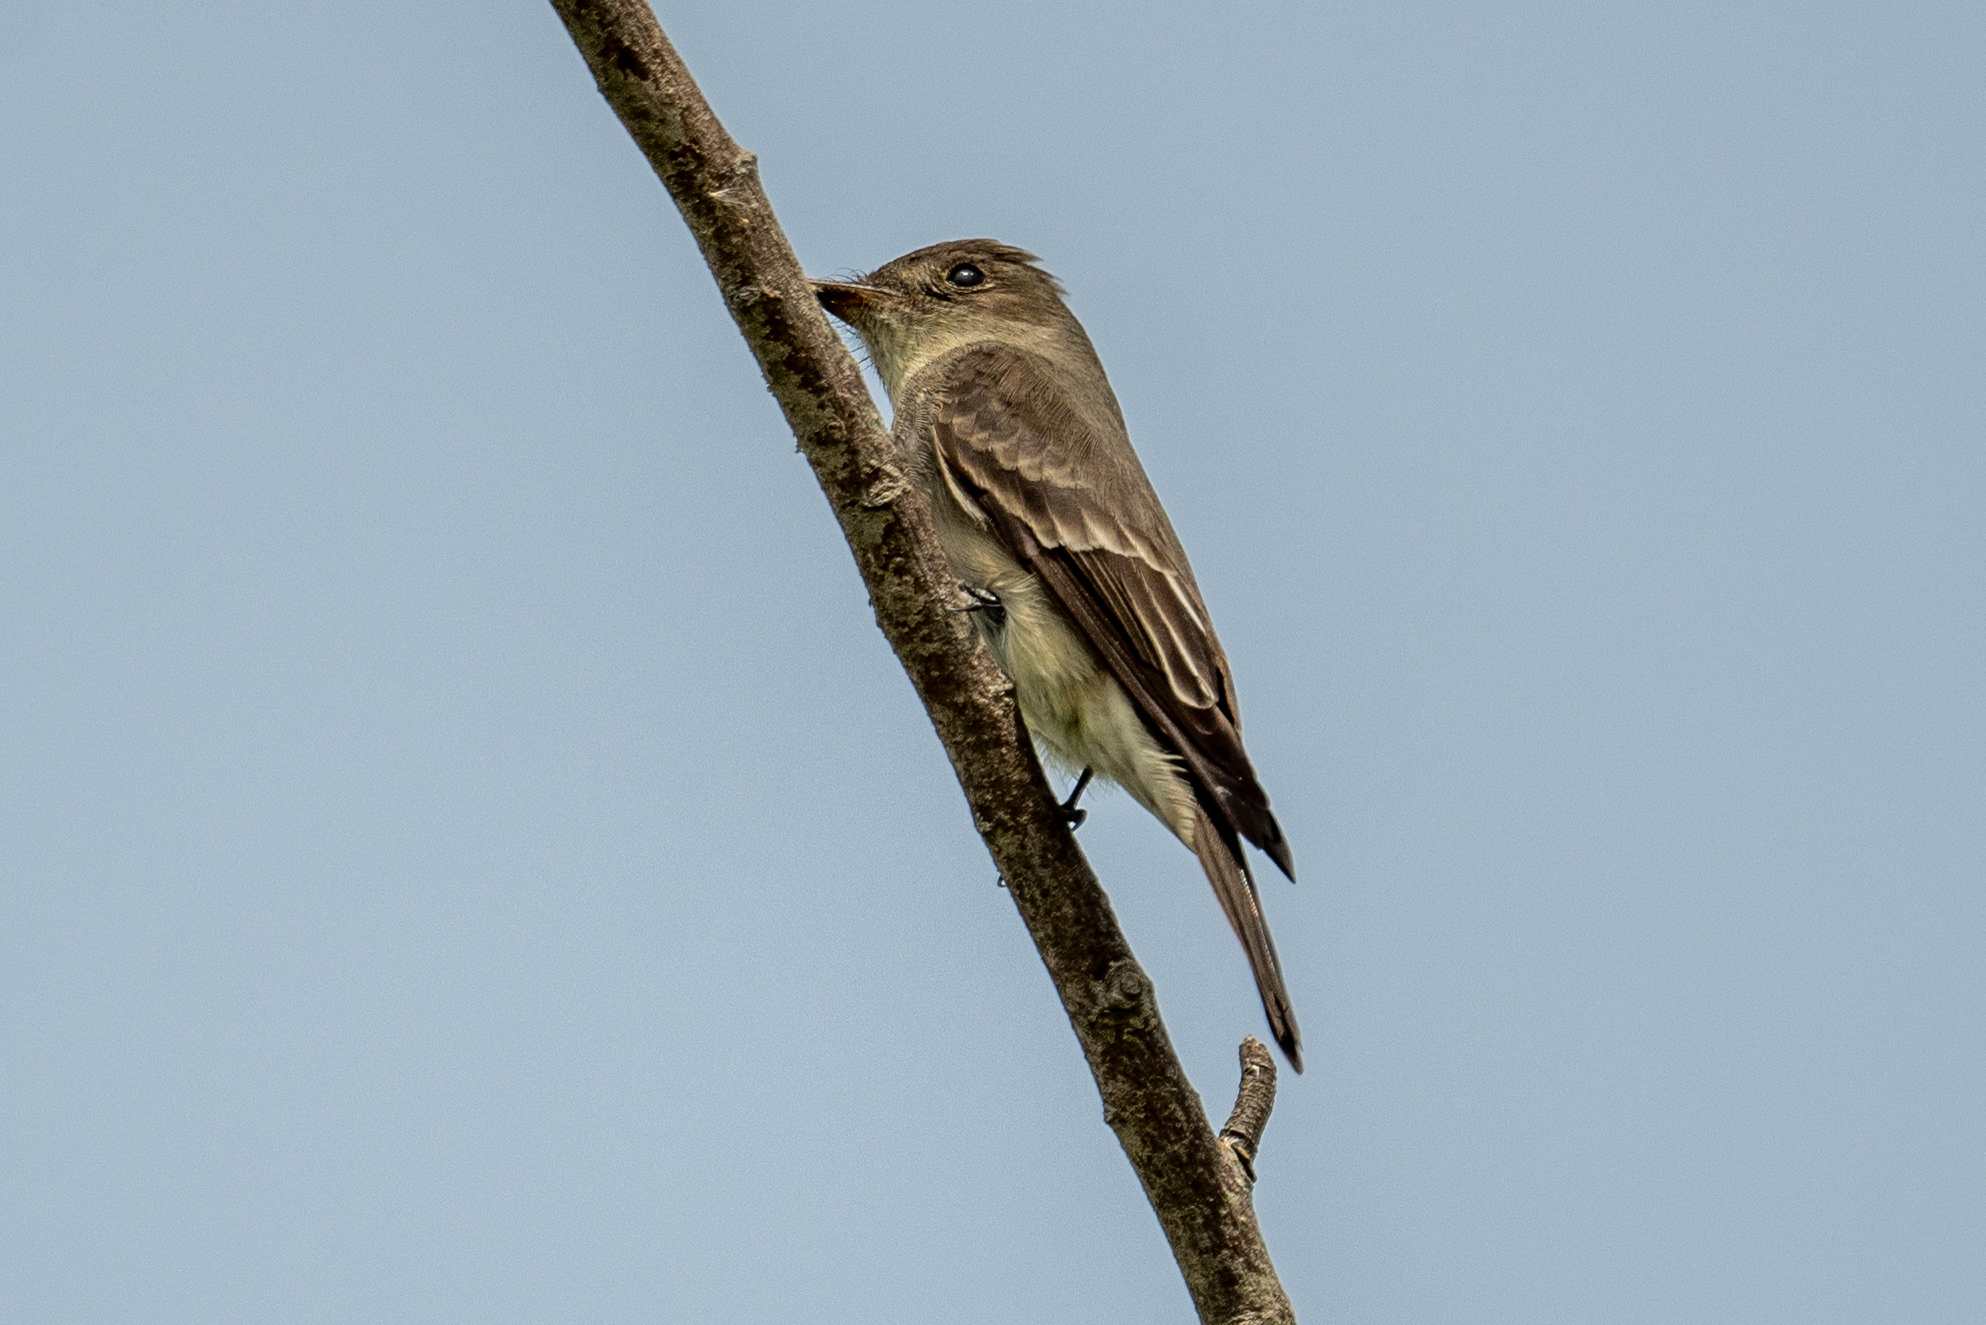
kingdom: Animalia
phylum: Chordata
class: Aves
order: Passeriformes
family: Tyrannidae
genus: Contopus
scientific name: Contopus sordidulus
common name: Western wood-pewee
